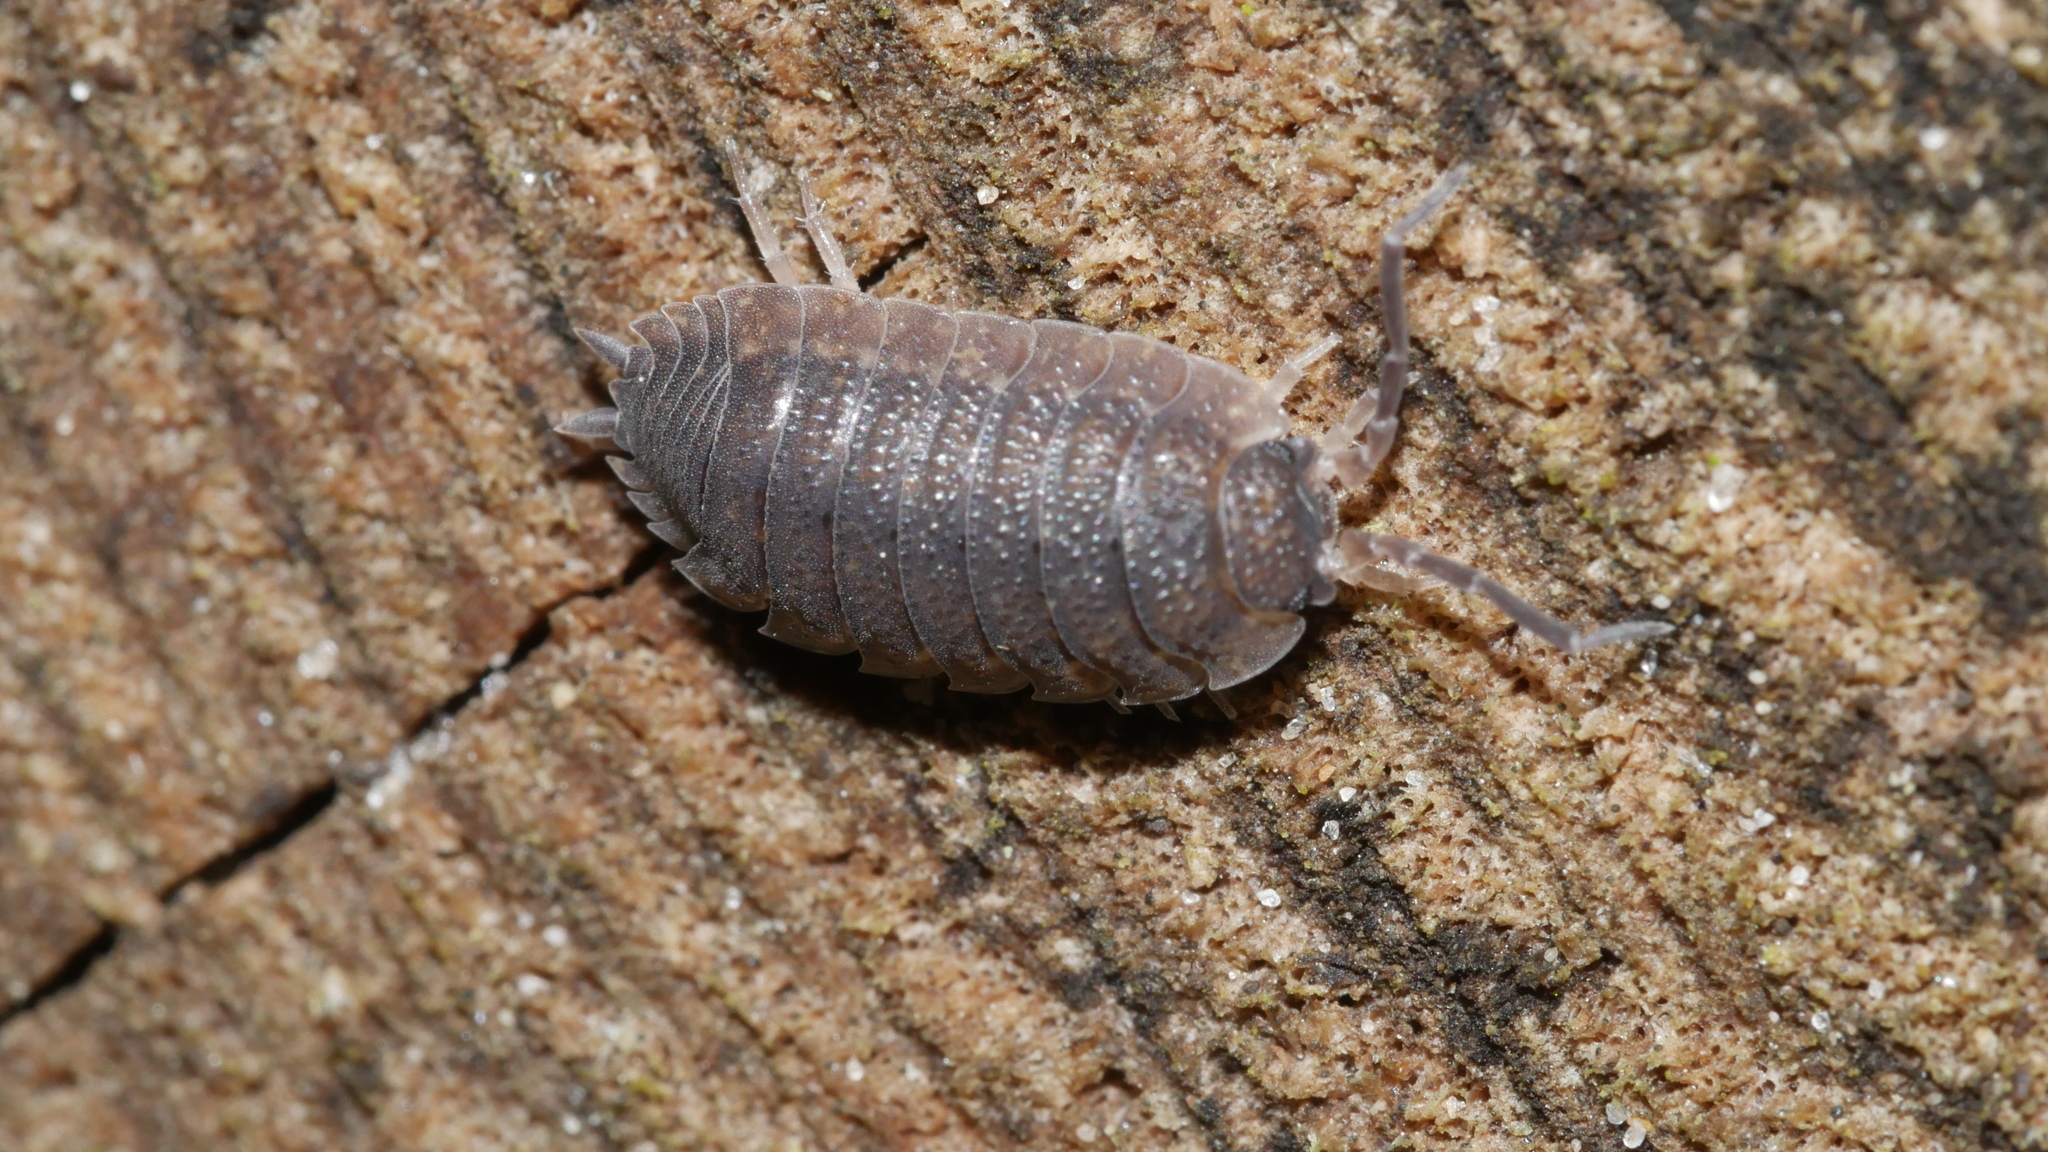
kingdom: Animalia
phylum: Arthropoda
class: Malacostraca
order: Isopoda
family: Porcellionidae
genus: Porcellio
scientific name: Porcellio scaber
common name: Common rough woodlouse
